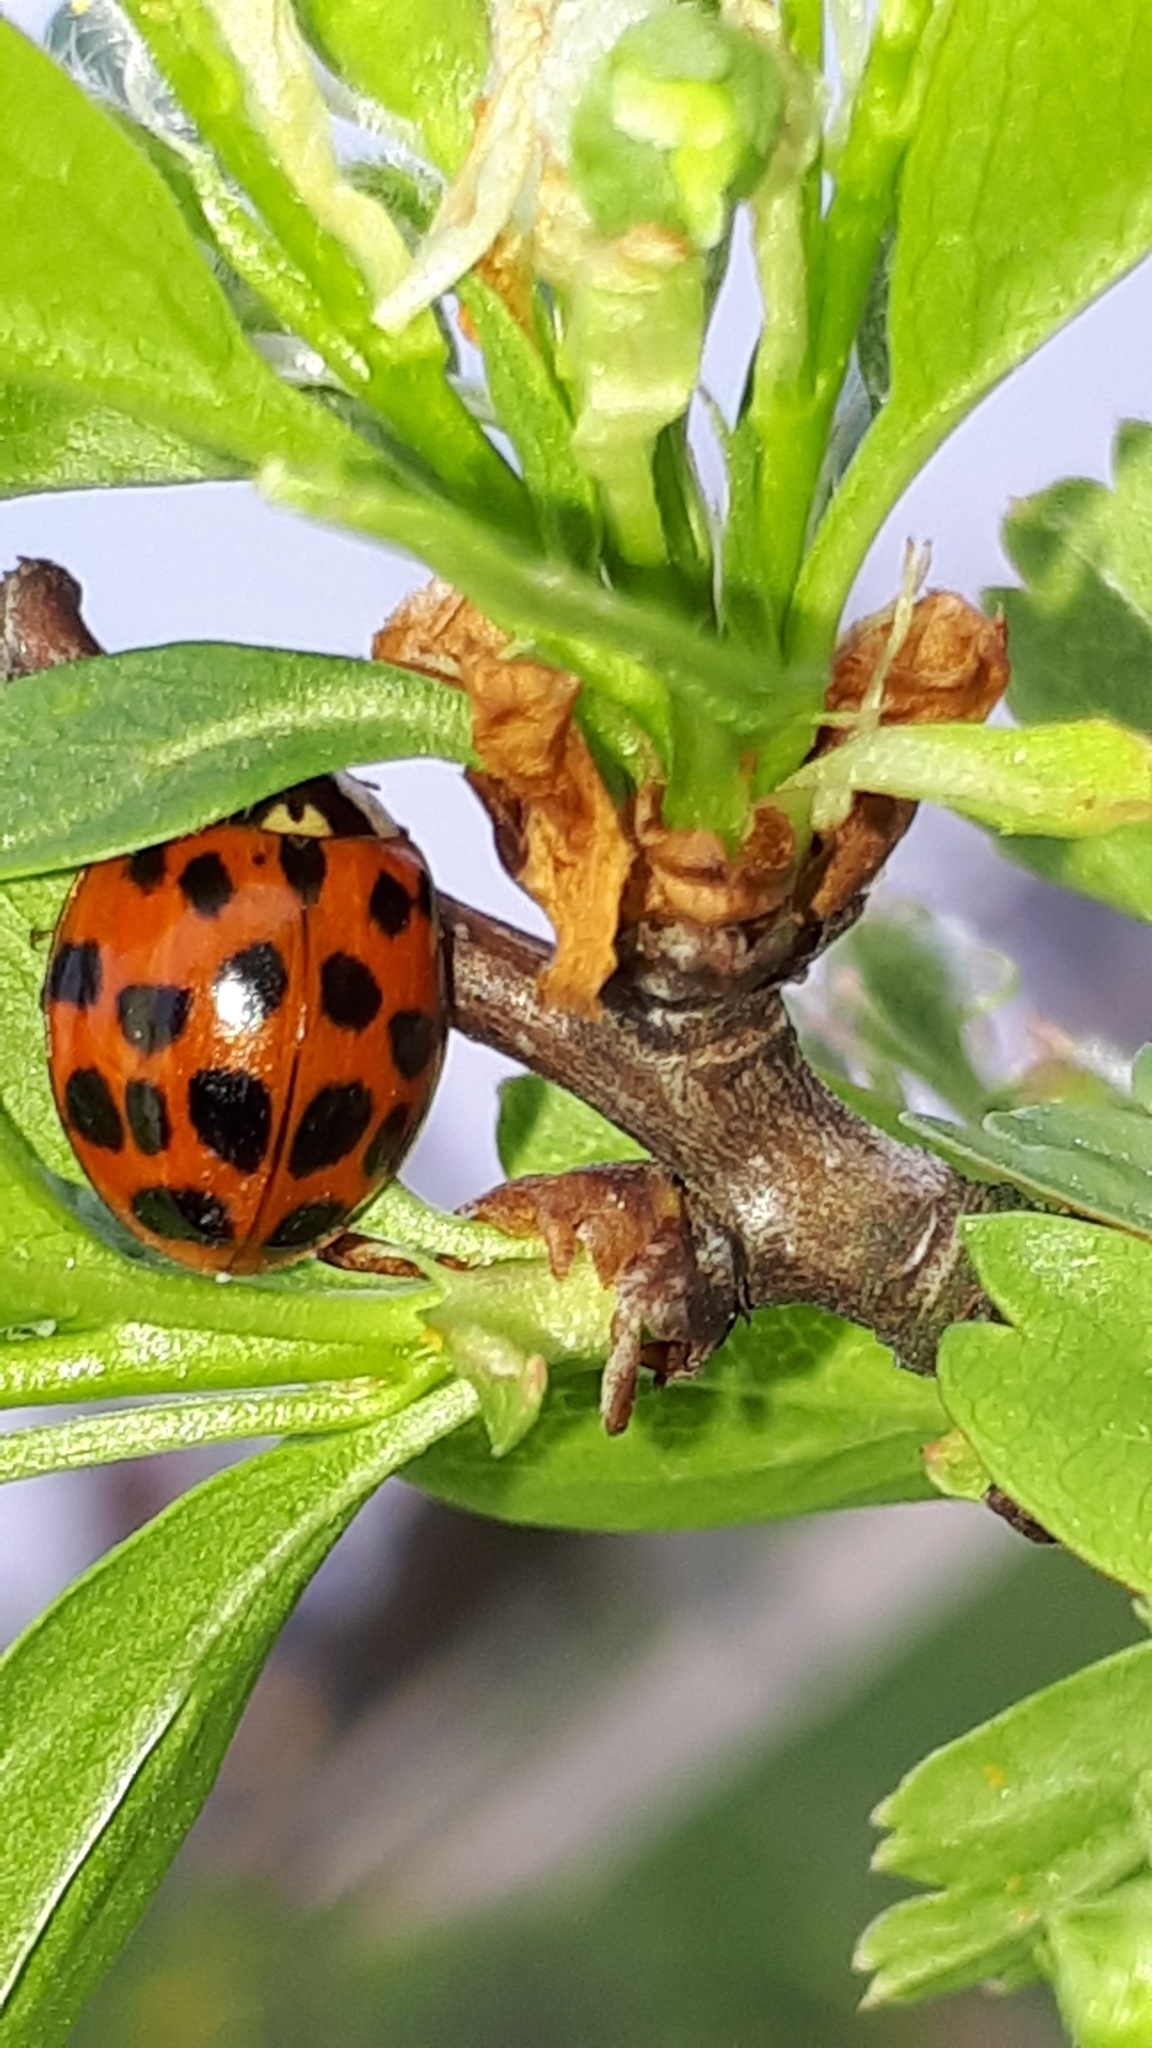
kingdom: Animalia
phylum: Arthropoda
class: Insecta
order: Coleoptera
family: Coccinellidae
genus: Harmonia
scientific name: Harmonia axyridis
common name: Harlequin ladybird
